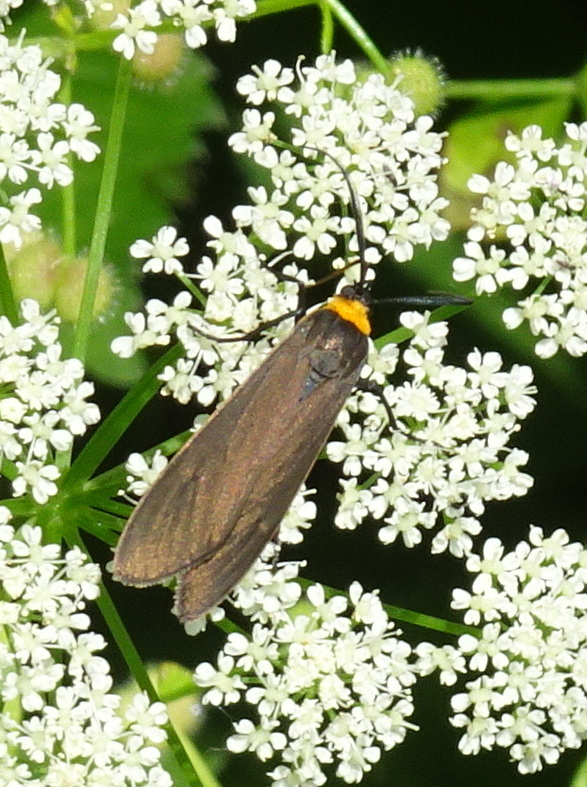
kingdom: Animalia
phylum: Arthropoda
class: Insecta
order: Lepidoptera
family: Erebidae
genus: Cisseps
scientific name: Cisseps fulvicollis
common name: Yellow-collared scape moth
